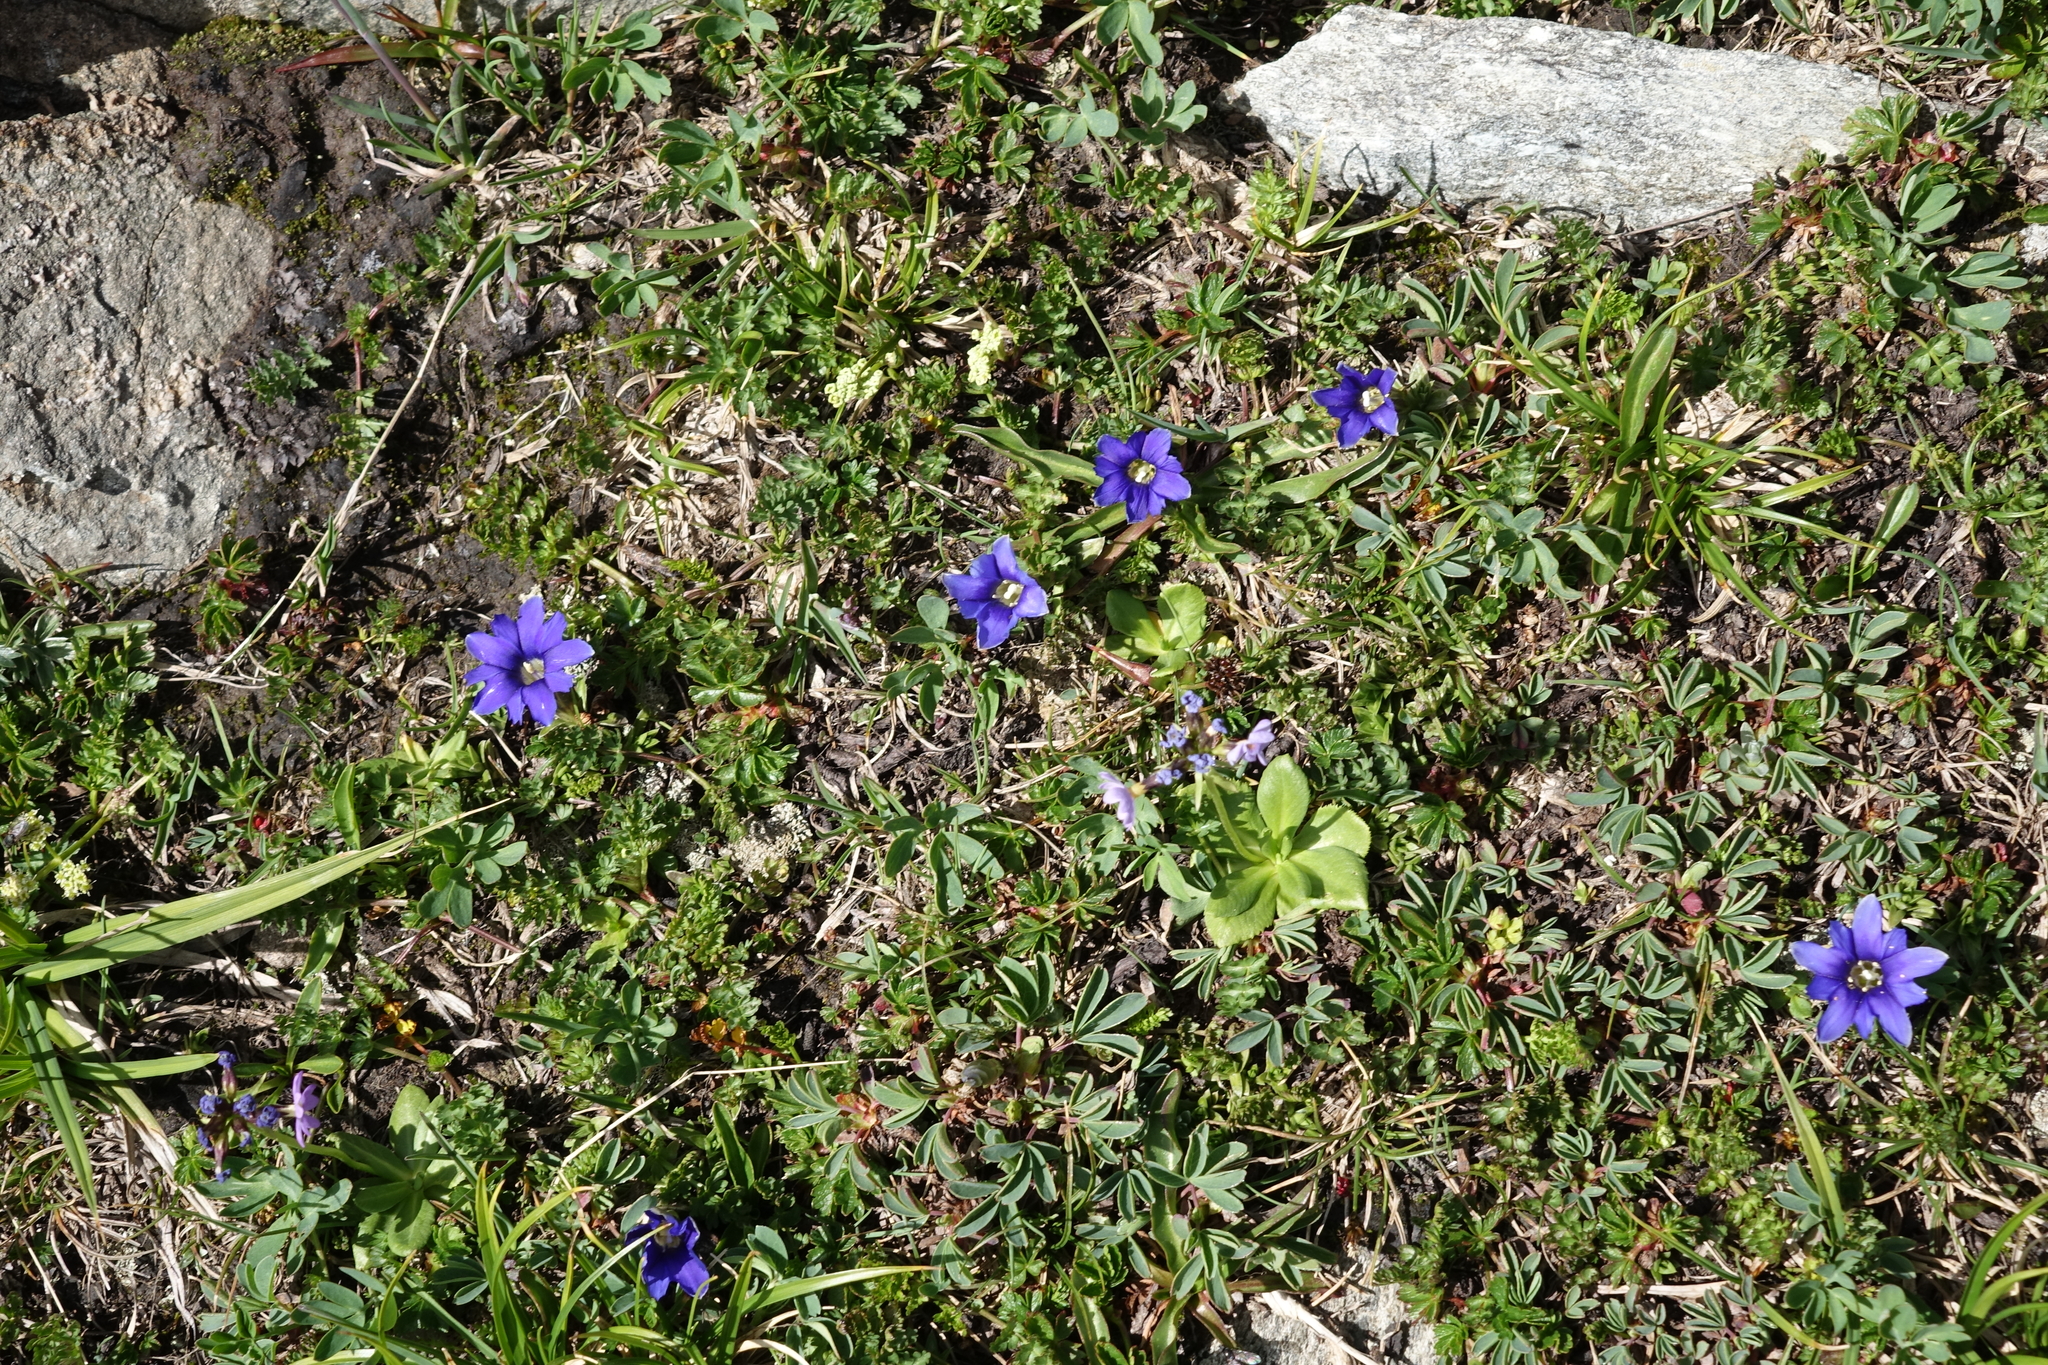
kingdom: Plantae
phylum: Tracheophyta
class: Magnoliopsida
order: Gentianales
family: Gentianaceae
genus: Gentiana
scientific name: Gentiana dshimilensis
